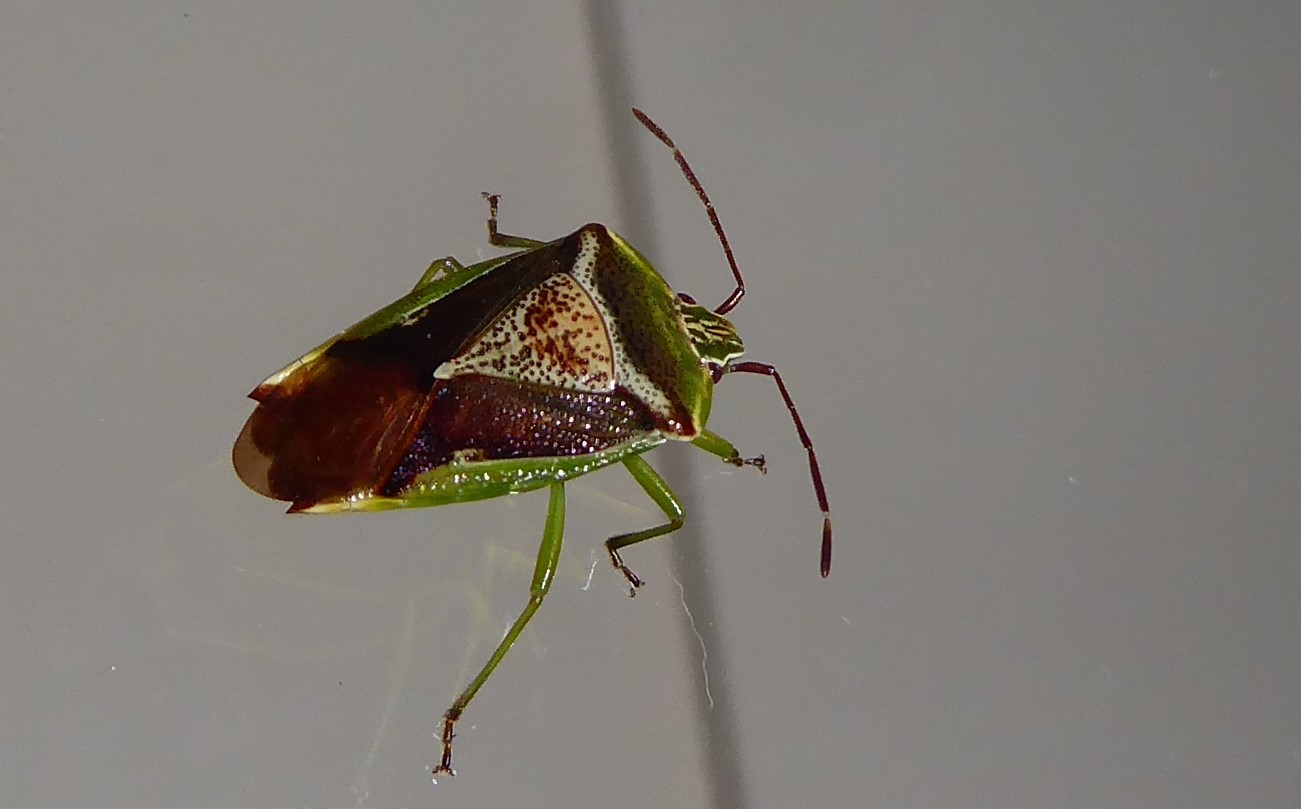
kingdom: Animalia
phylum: Arthropoda
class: Insecta
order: Hemiptera
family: Acanthosomatidae
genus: Oncacontias
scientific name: Oncacontias vittatus
